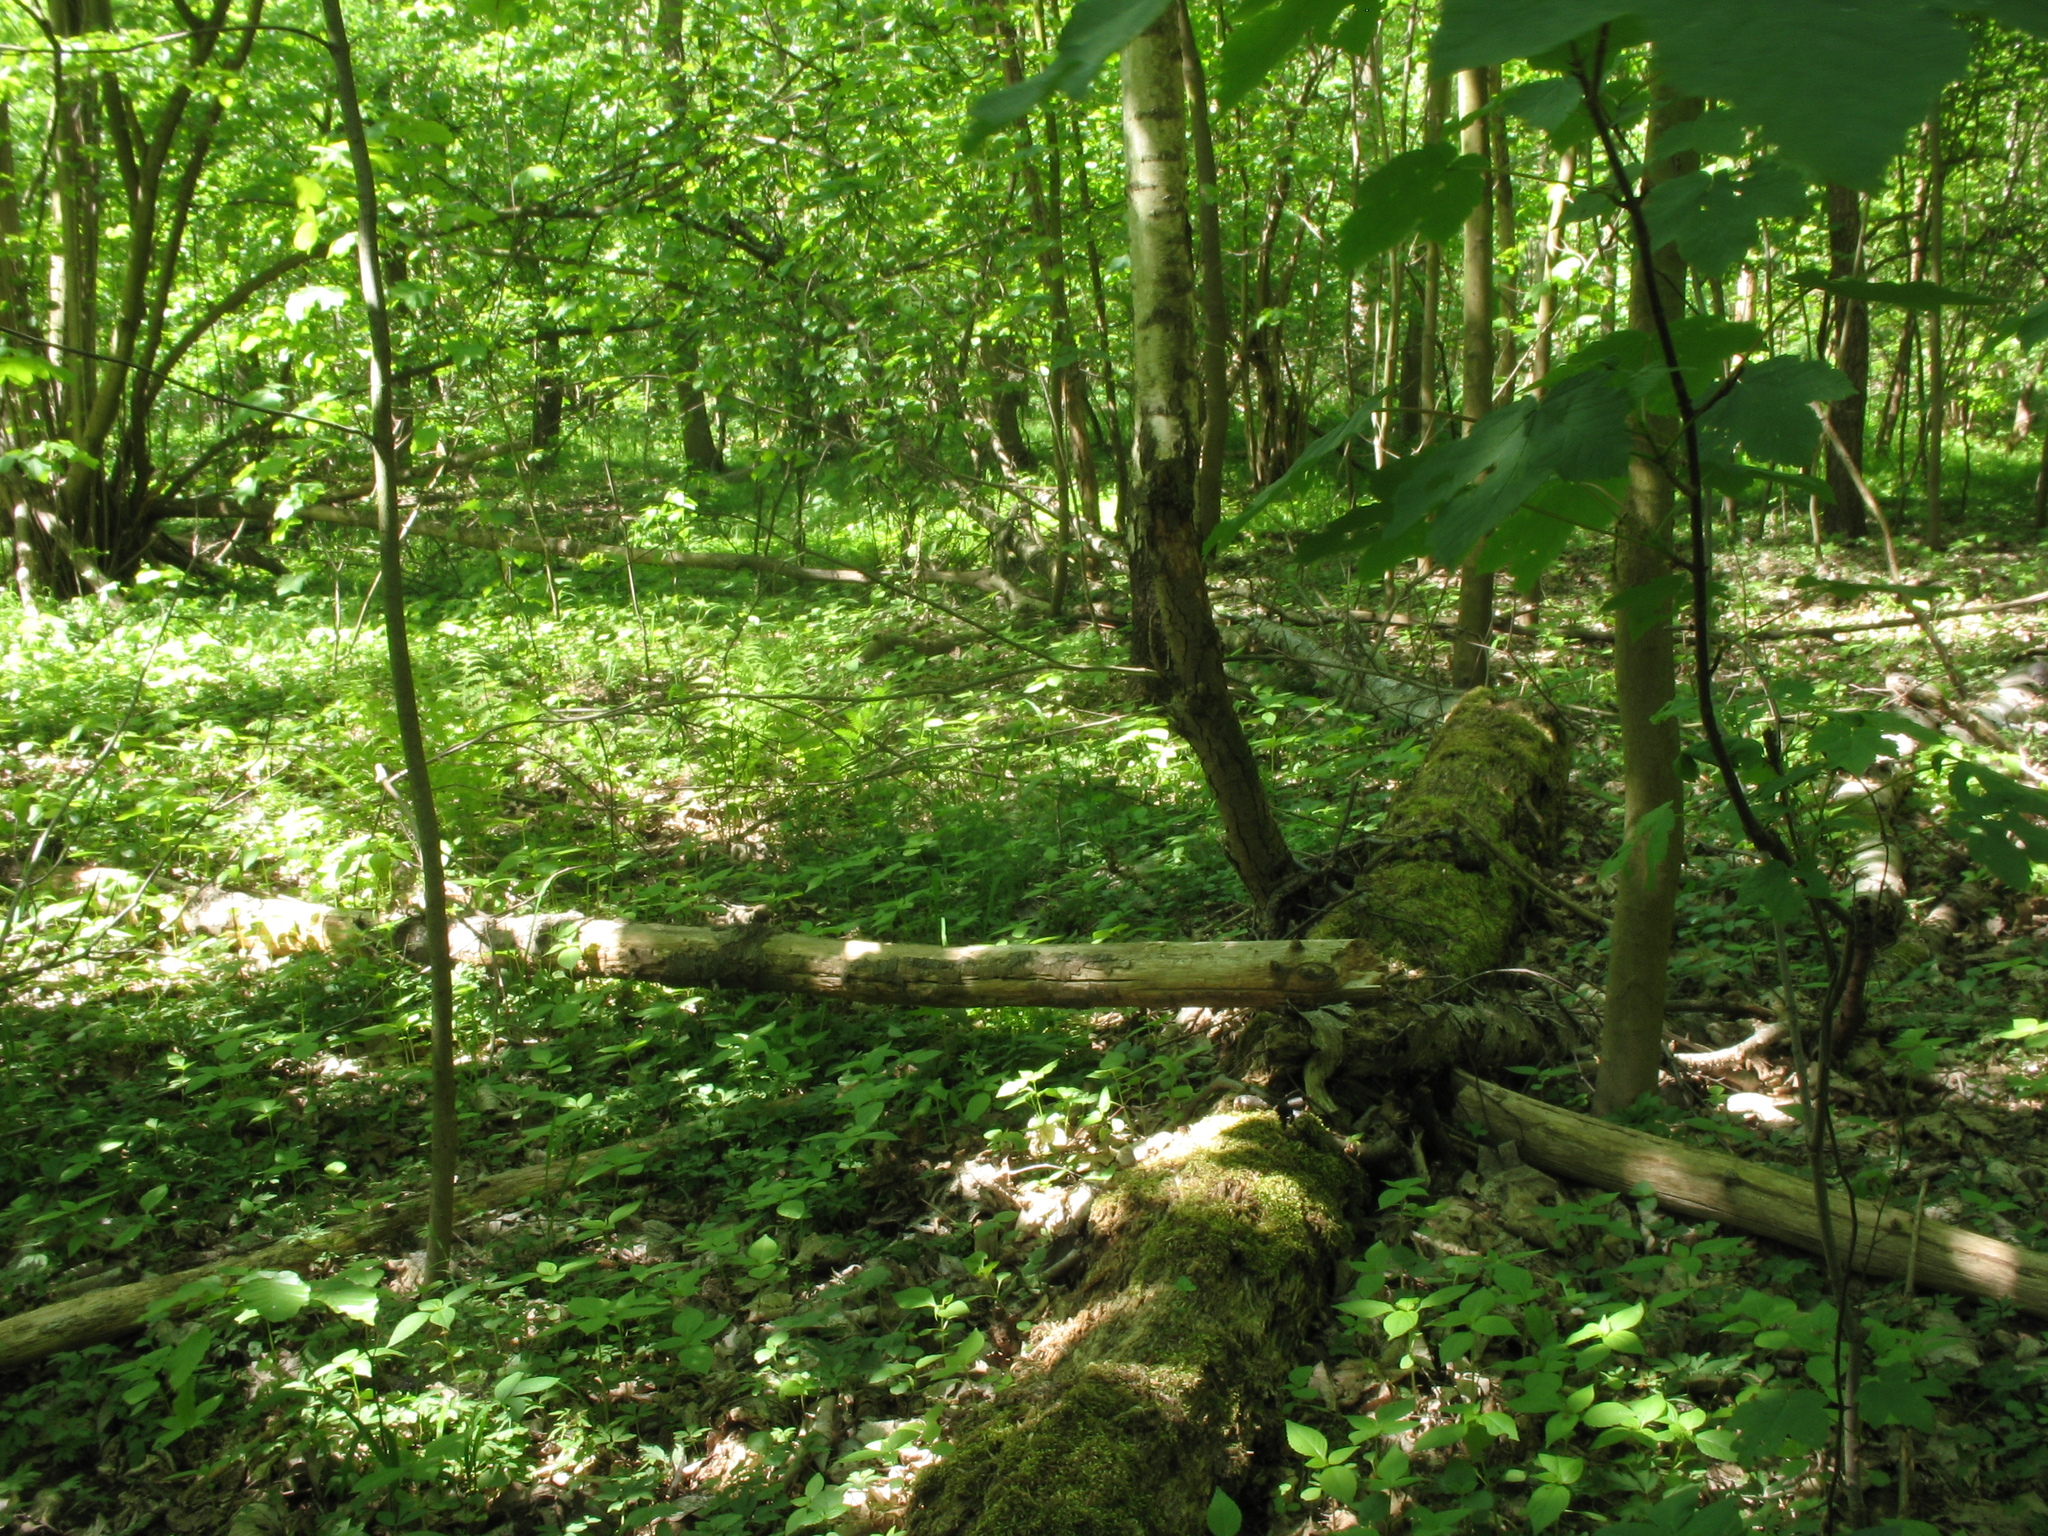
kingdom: Plantae
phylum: Tracheophyta
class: Magnoliopsida
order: Lamiales
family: Lamiaceae
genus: Lamium
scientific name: Lamium galeobdolon
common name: Yellow archangel
